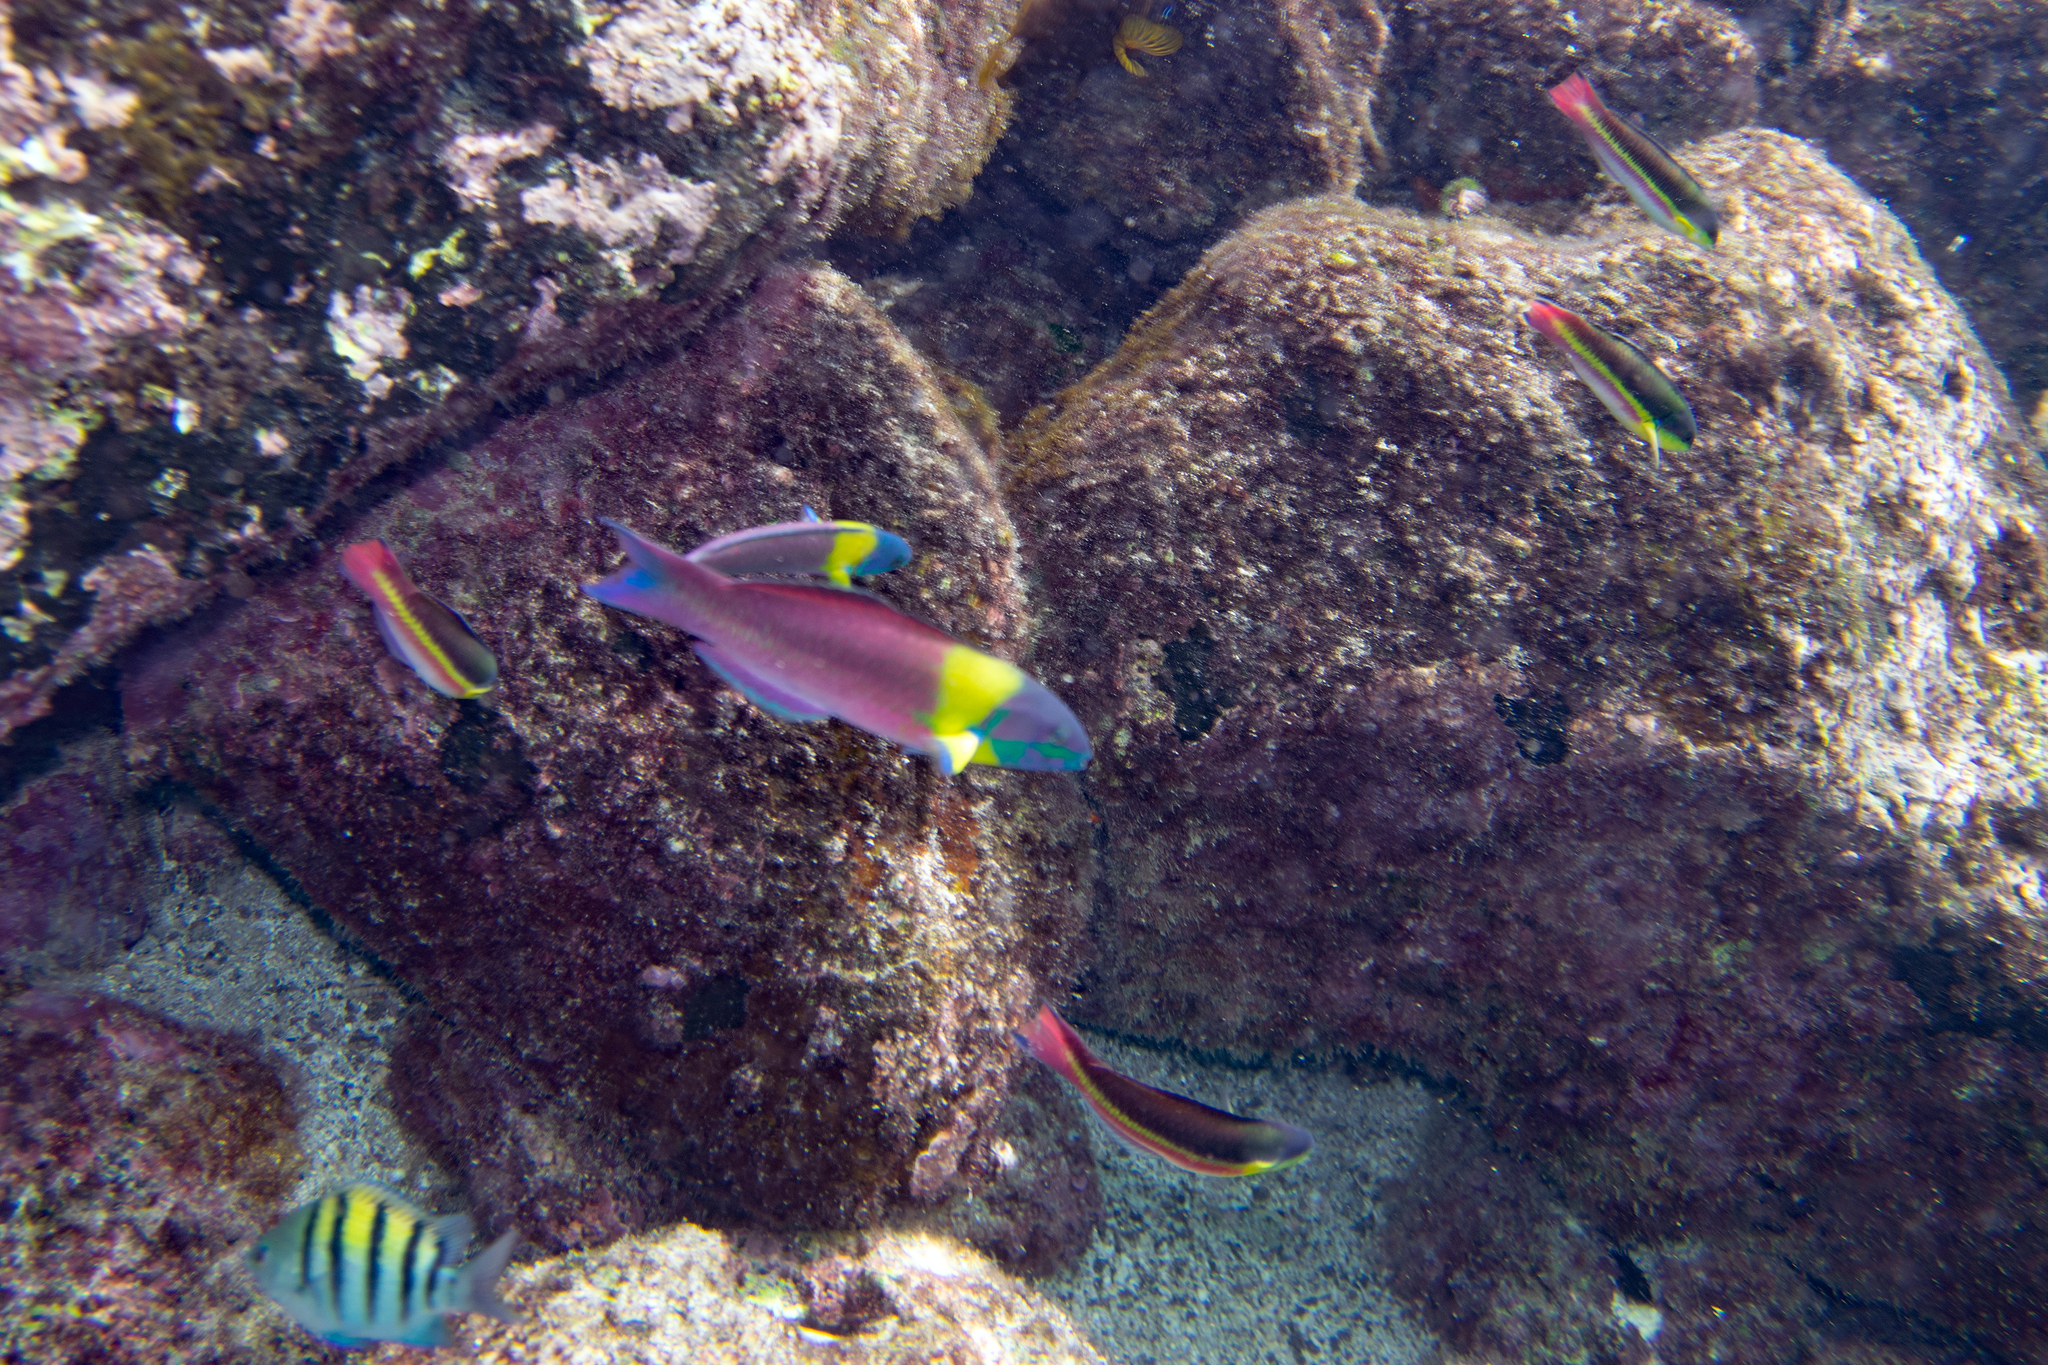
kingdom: Animalia
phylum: Chordata
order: Perciformes
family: Labridae
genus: Thalassoma
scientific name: Thalassoma lucasanum
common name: Cortez rainbow wrasse
